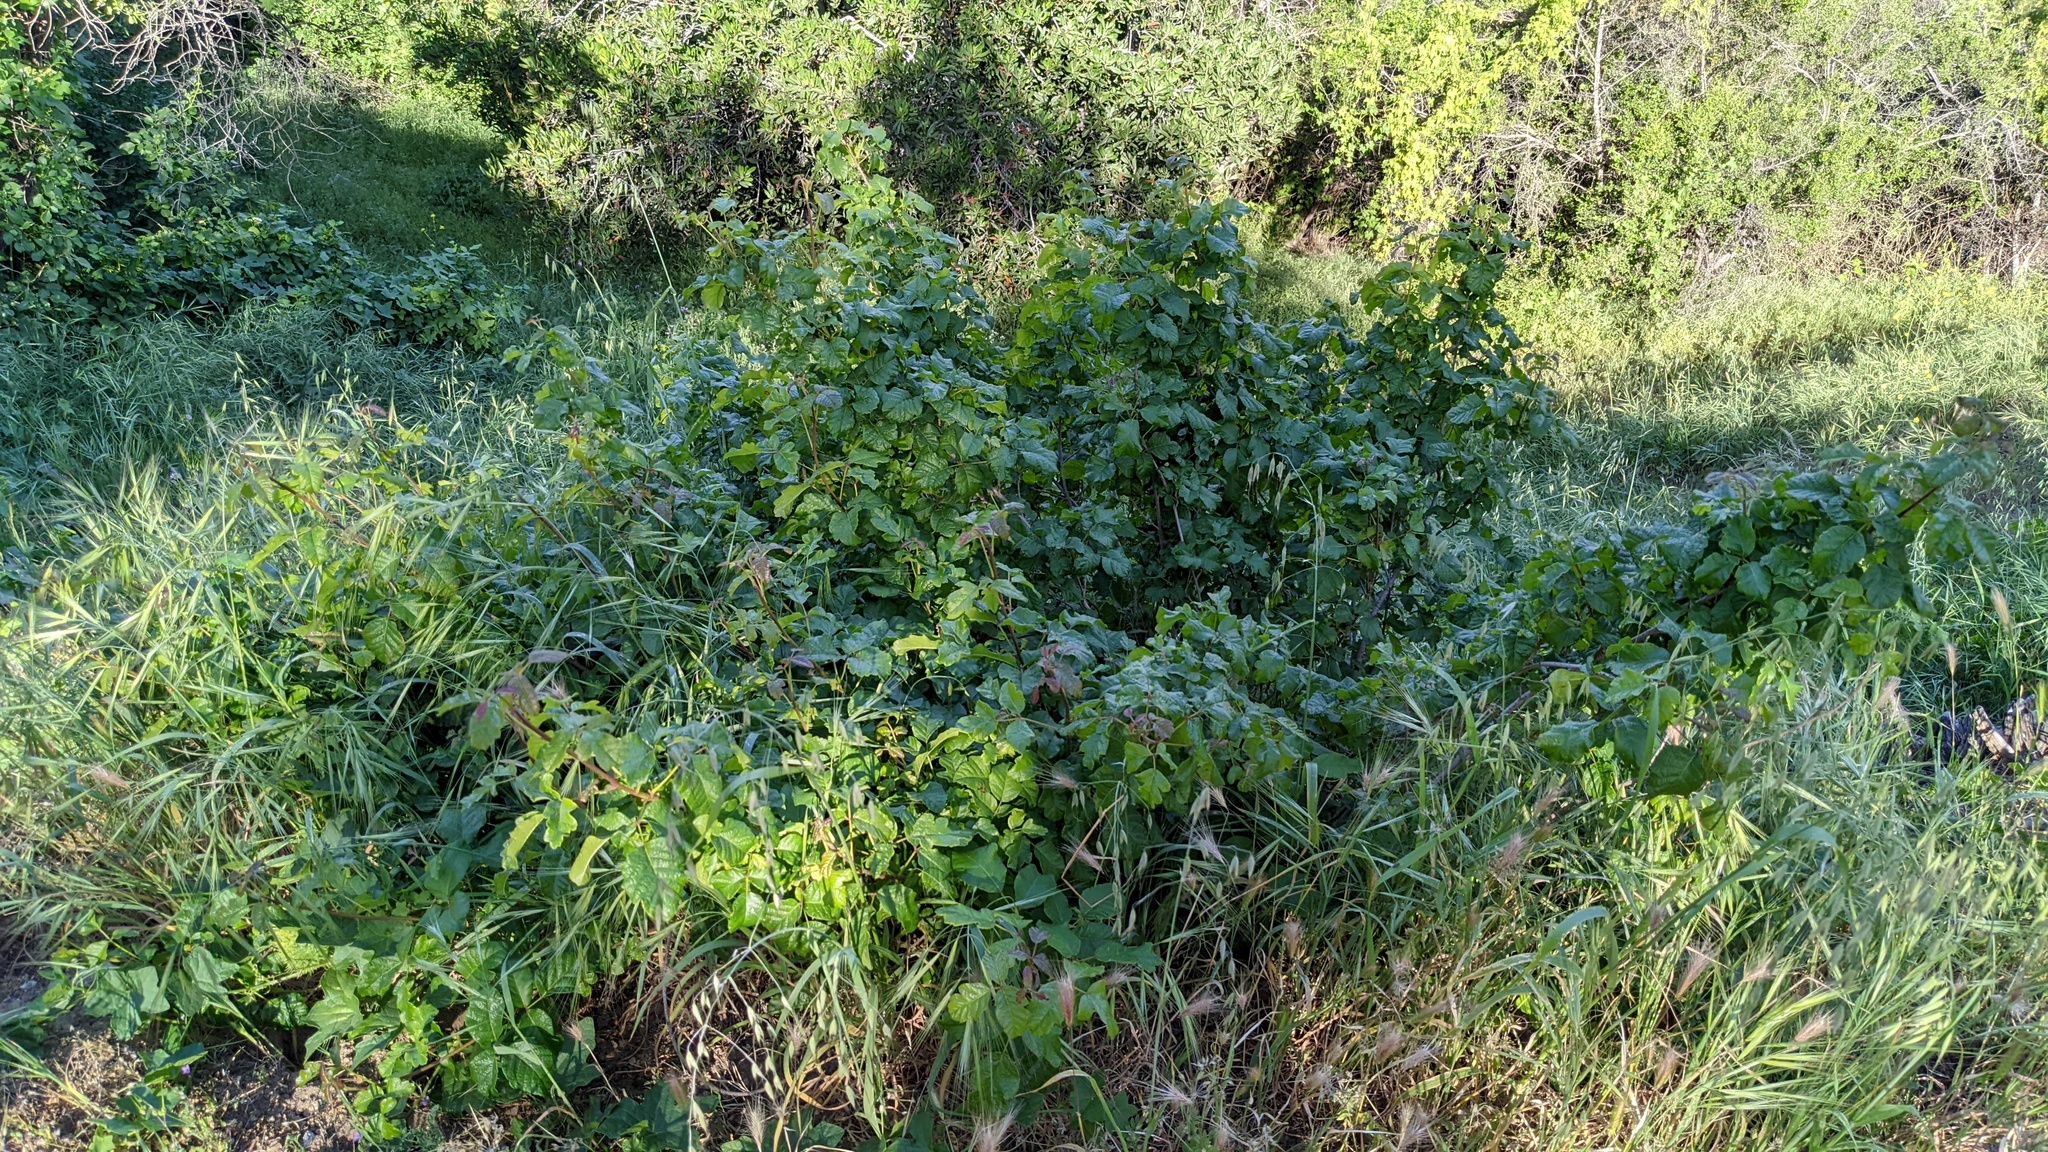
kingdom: Plantae
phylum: Tracheophyta
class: Magnoliopsida
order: Sapindales
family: Anacardiaceae
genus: Toxicodendron
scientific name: Toxicodendron diversilobum
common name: Pacific poison-oak
